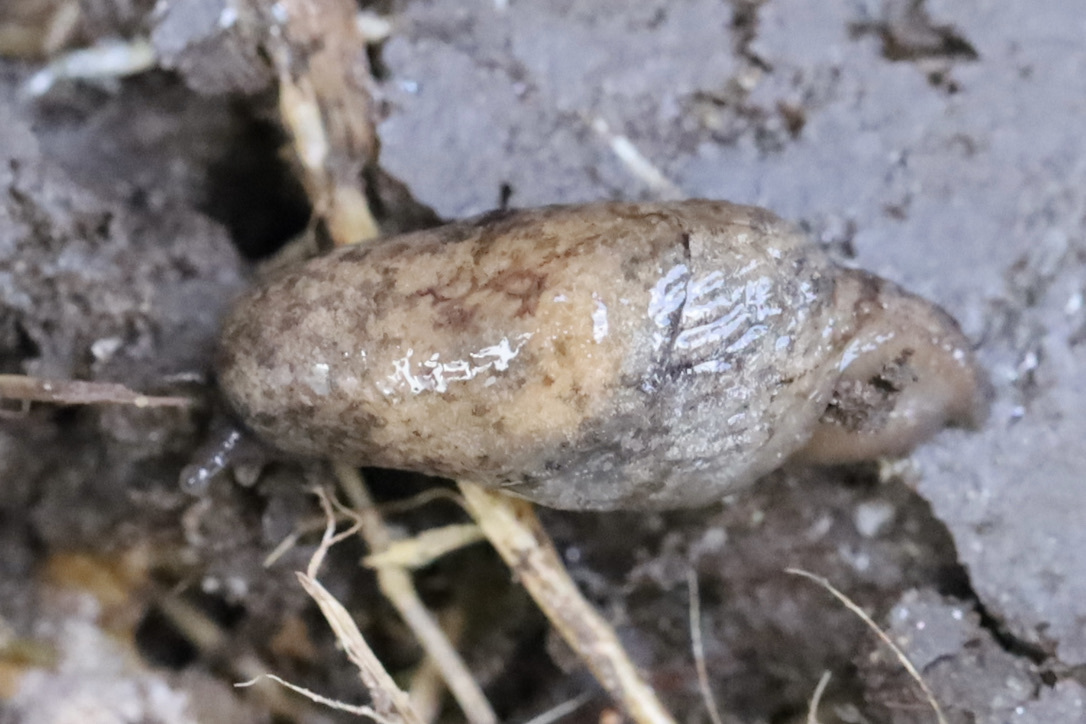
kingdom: Animalia
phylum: Mollusca
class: Gastropoda
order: Stylommatophora
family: Agriolimacidae
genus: Deroceras
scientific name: Deroceras reticulatum
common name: Gray field slug
